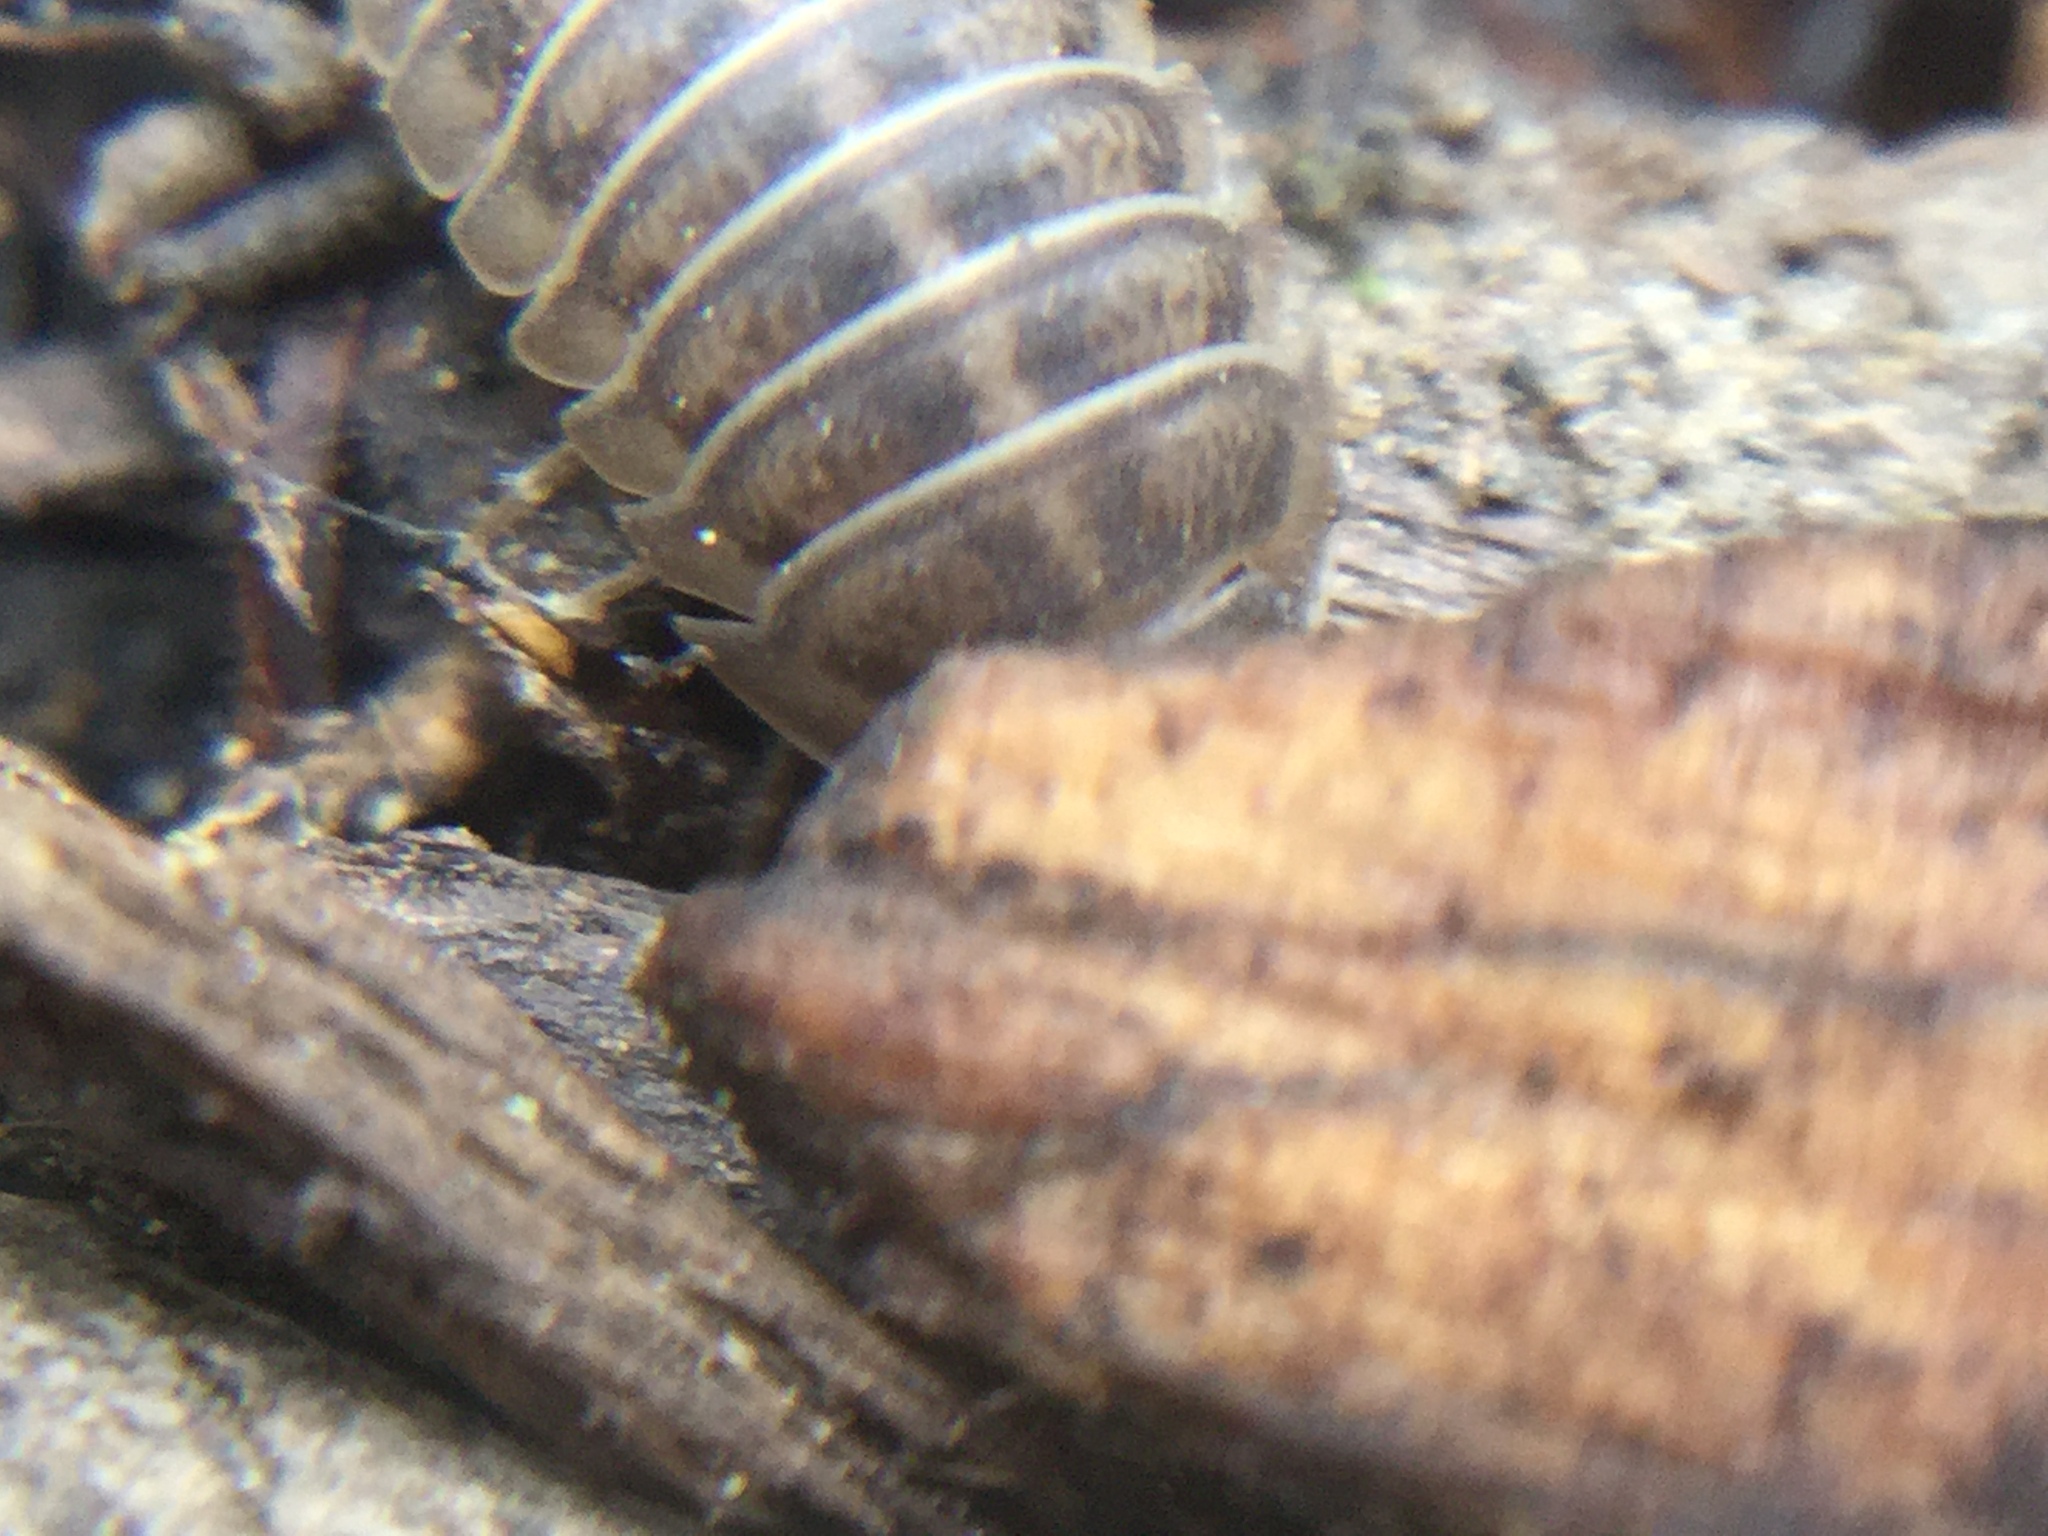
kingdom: Animalia
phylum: Arthropoda
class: Malacostraca
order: Isopoda
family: Armadillidiidae
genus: Armadillidium
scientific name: Armadillidium nasatum
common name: Isopod
